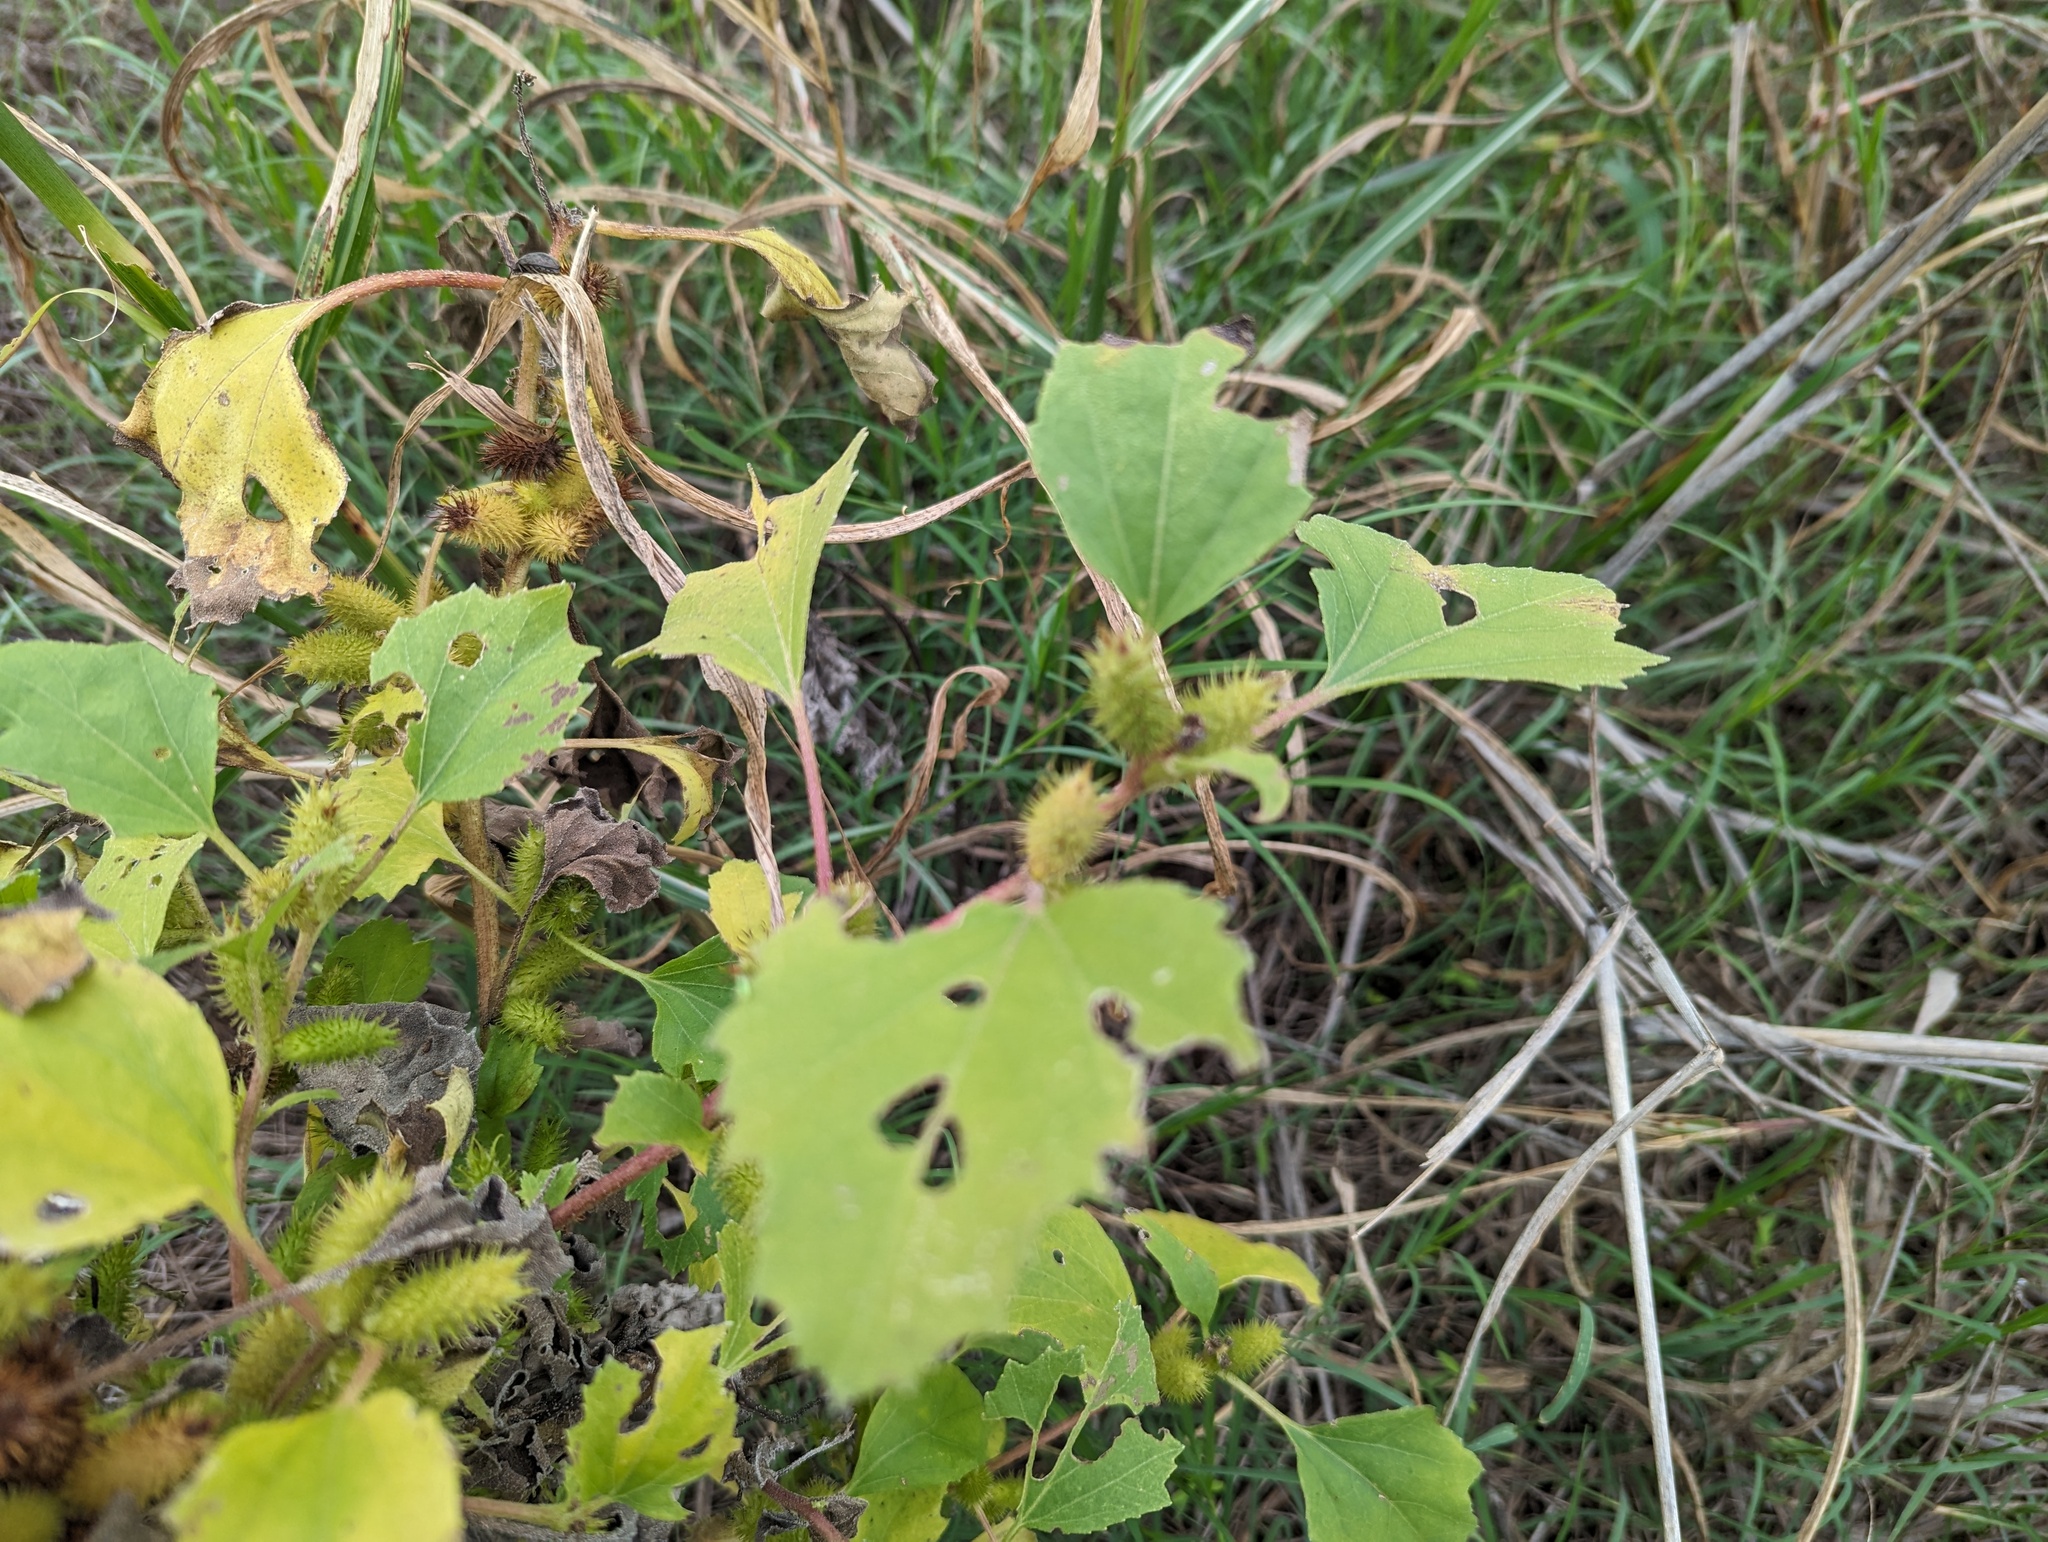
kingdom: Plantae
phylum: Tracheophyta
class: Magnoliopsida
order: Asterales
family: Asteraceae
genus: Xanthium
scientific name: Xanthium strumarium
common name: Rough cocklebur
